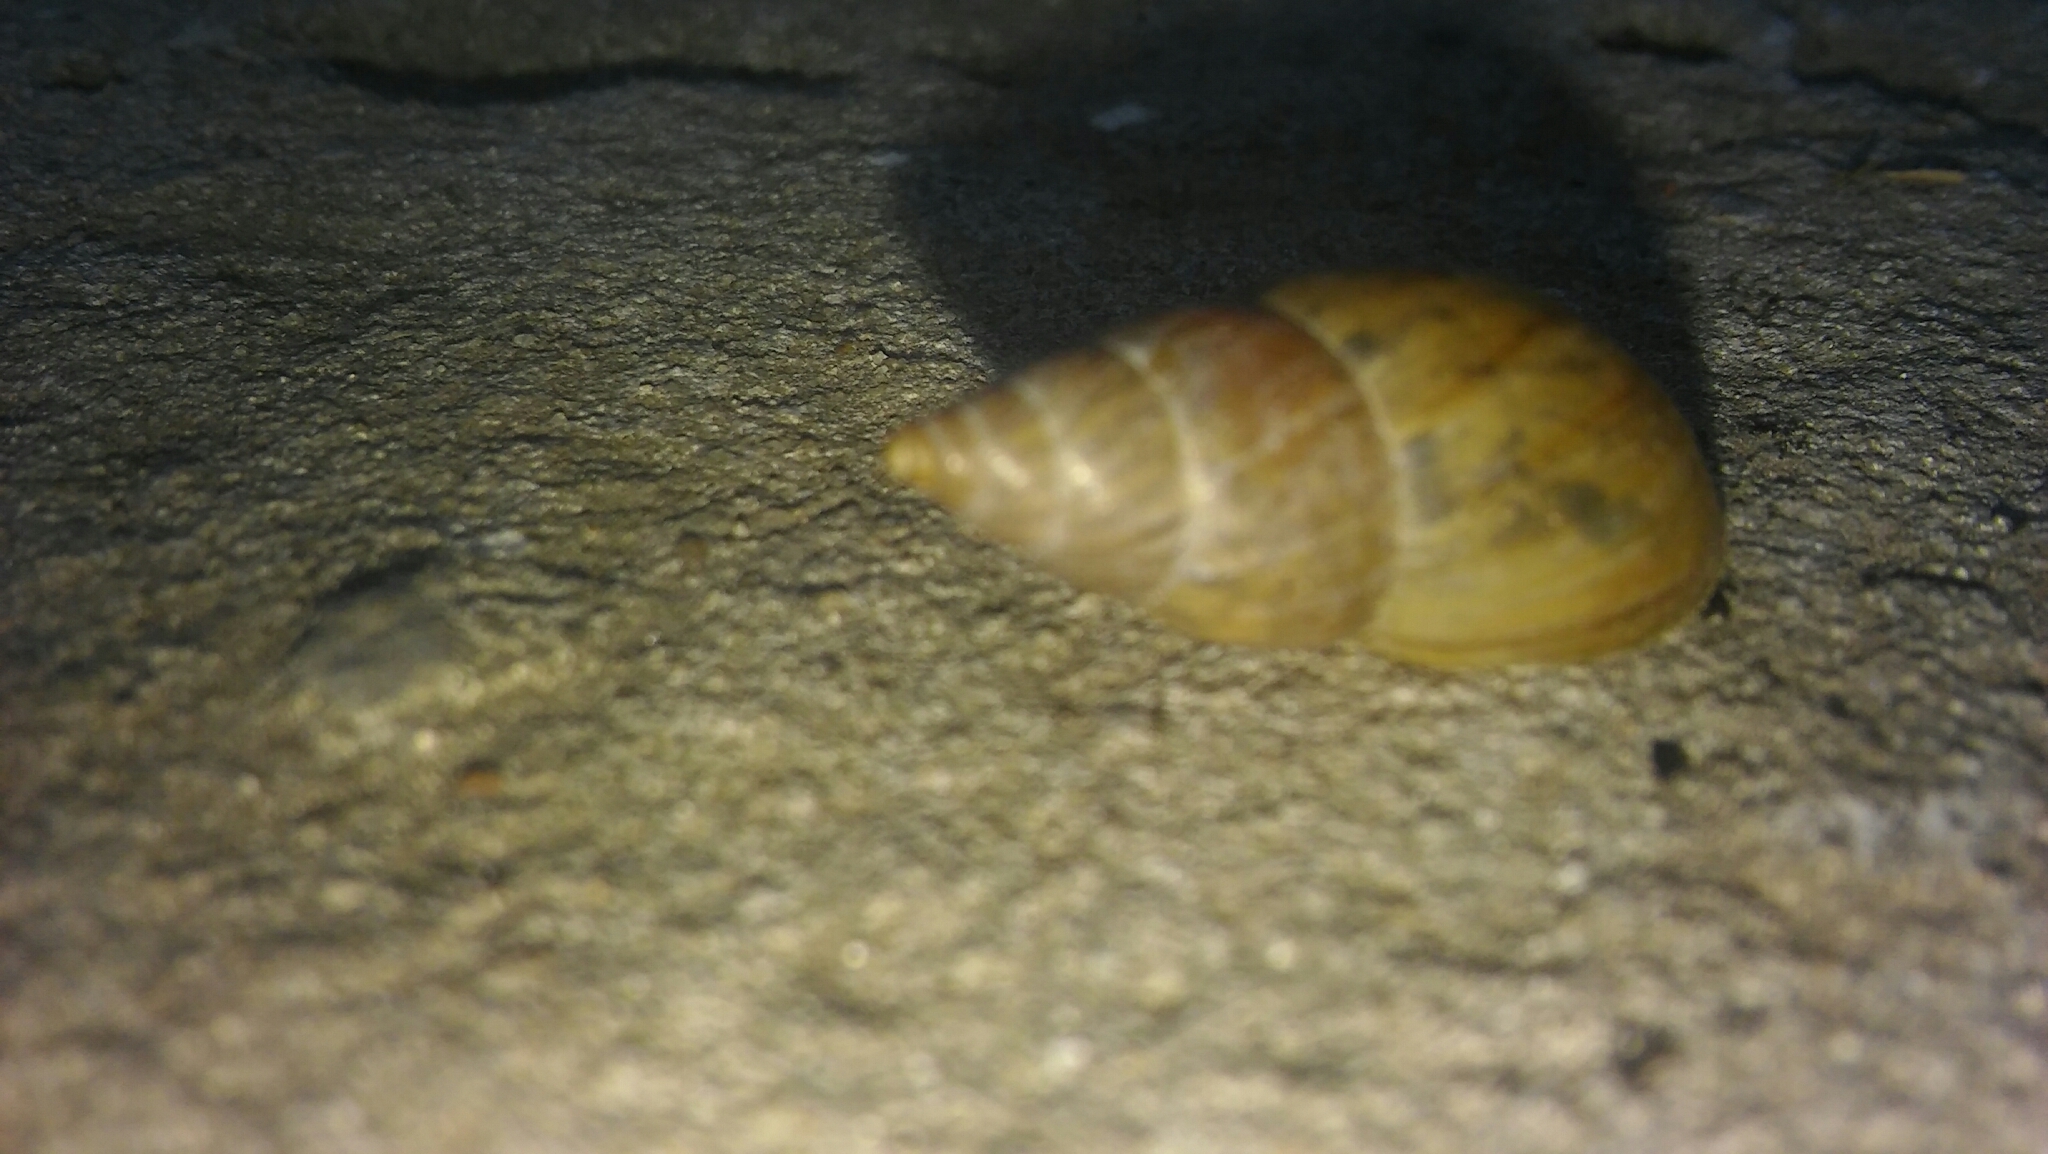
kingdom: Animalia
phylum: Mollusca
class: Gastropoda
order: Stylommatophora
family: Bulimulidae
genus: Bulimulus
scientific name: Bulimulus bonariensis
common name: Snail
